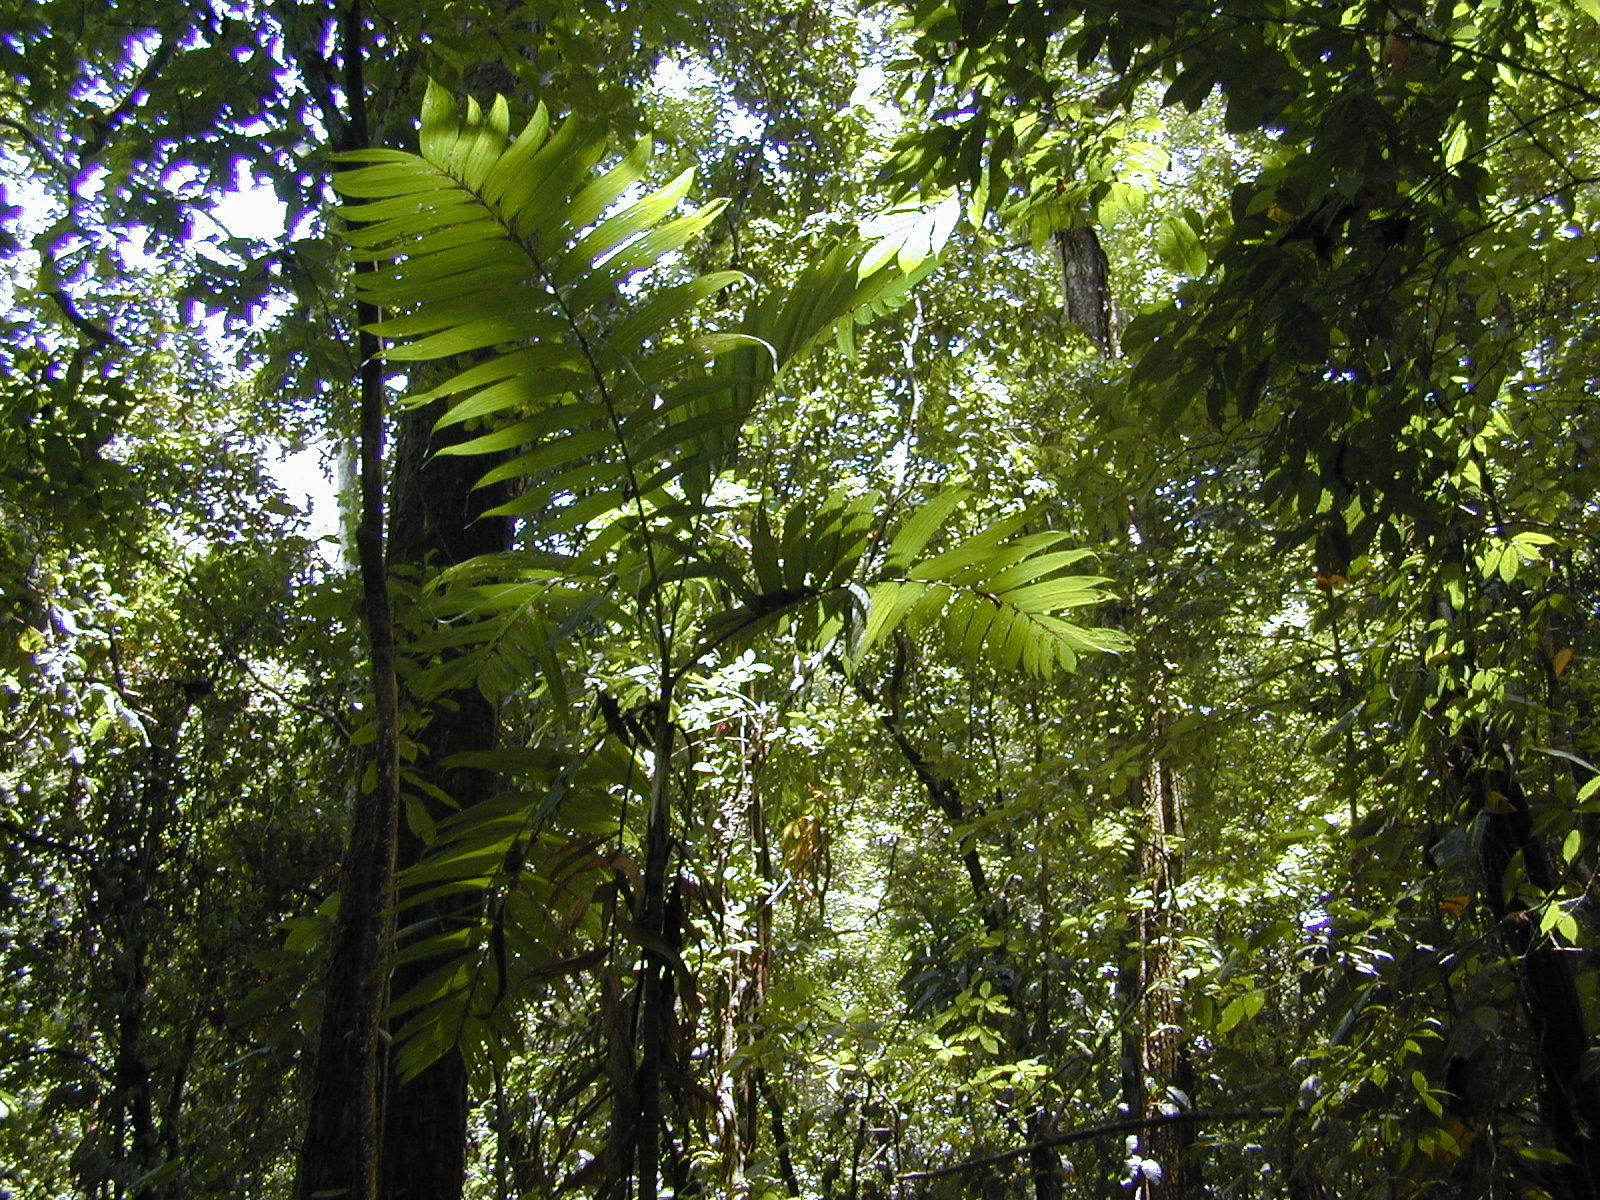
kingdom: Plantae
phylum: Tracheophyta
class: Liliopsida
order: Arecales
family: Arecaceae
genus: Chamaedorea
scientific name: Chamaedorea tepejilote
